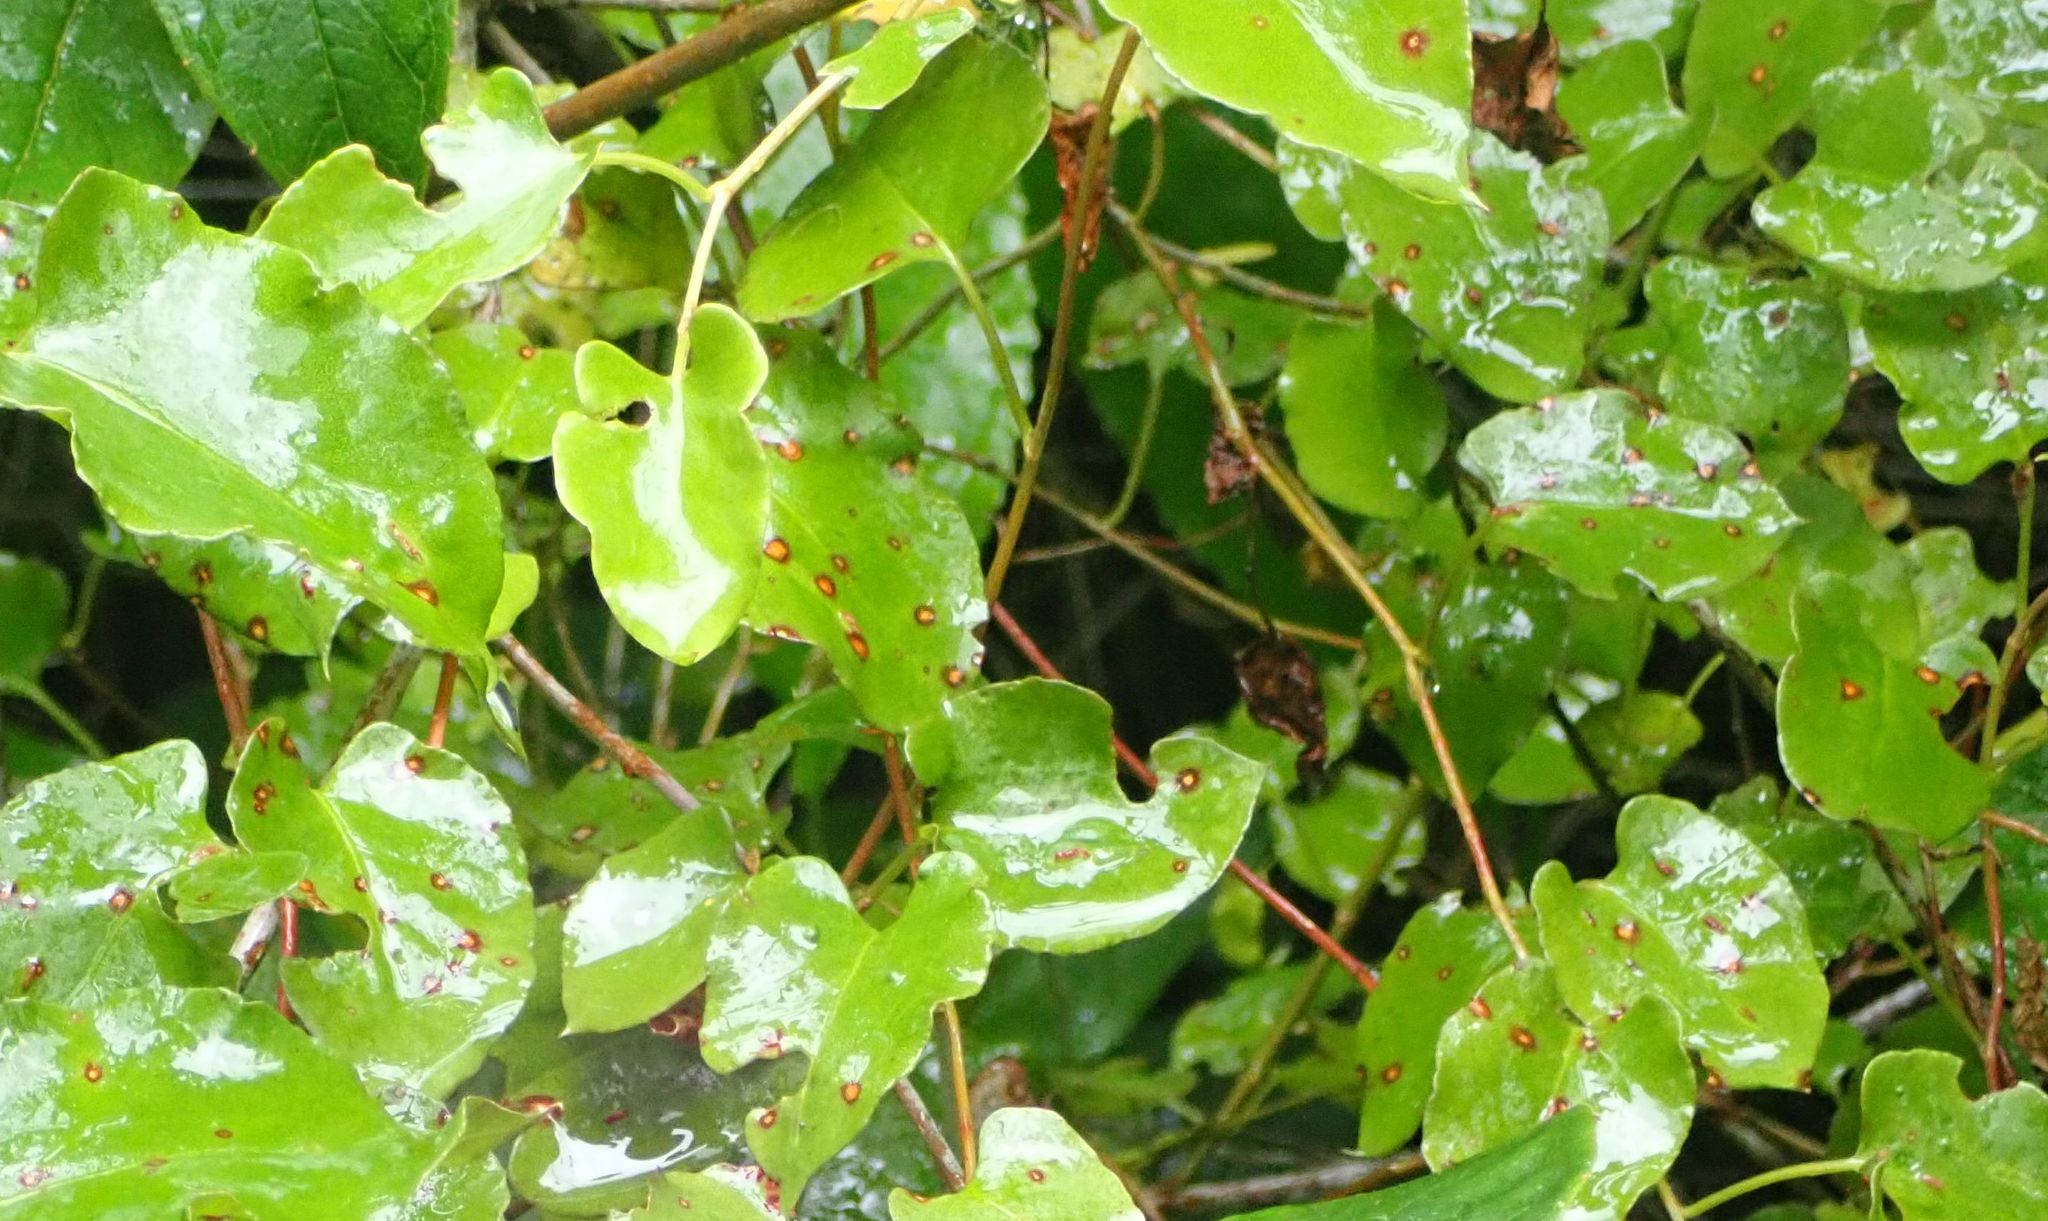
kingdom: Plantae
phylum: Tracheophyta
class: Magnoliopsida
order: Caryophyllales
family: Polygonaceae
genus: Muehlenbeckia
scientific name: Muehlenbeckia australis
